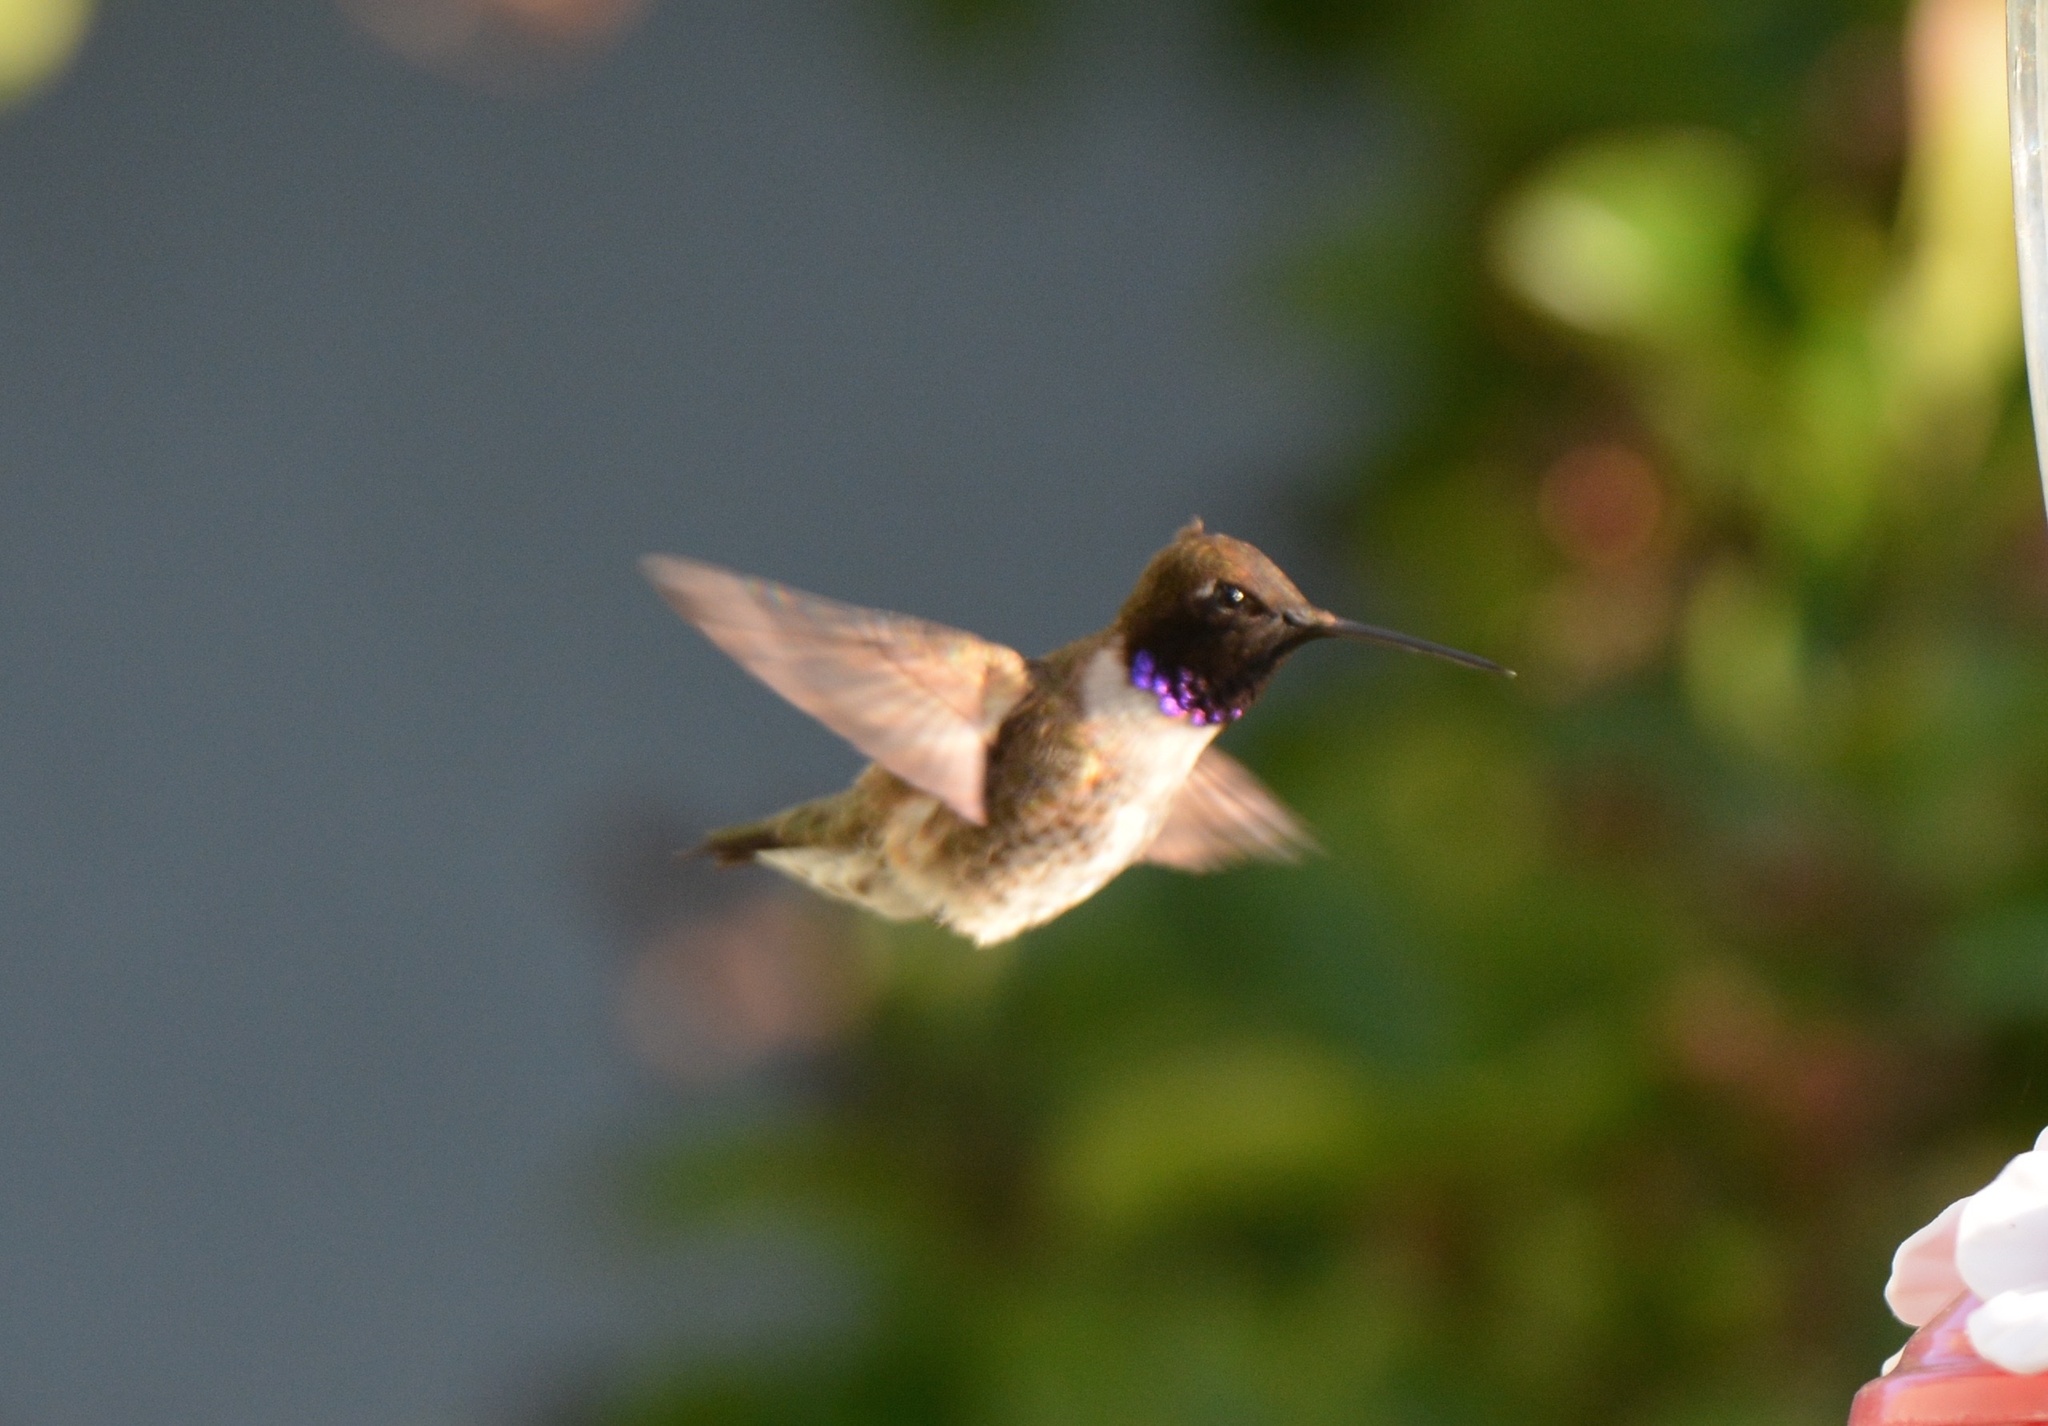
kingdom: Animalia
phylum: Chordata
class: Aves
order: Apodiformes
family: Trochilidae
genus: Calypte
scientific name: Calypte anna
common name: Anna's hummingbird
